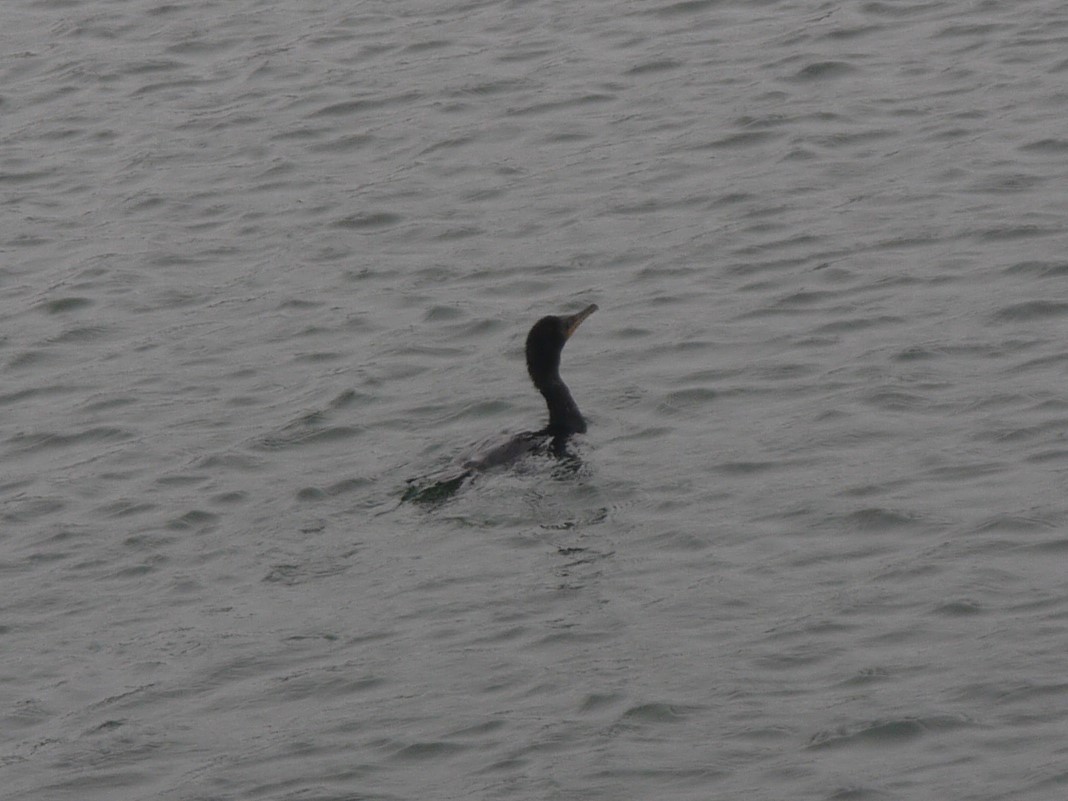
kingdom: Animalia
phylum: Chordata
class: Aves
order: Suliformes
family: Phalacrocoracidae
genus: Phalacrocorax
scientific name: Phalacrocorax auritus
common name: Double-crested cormorant
